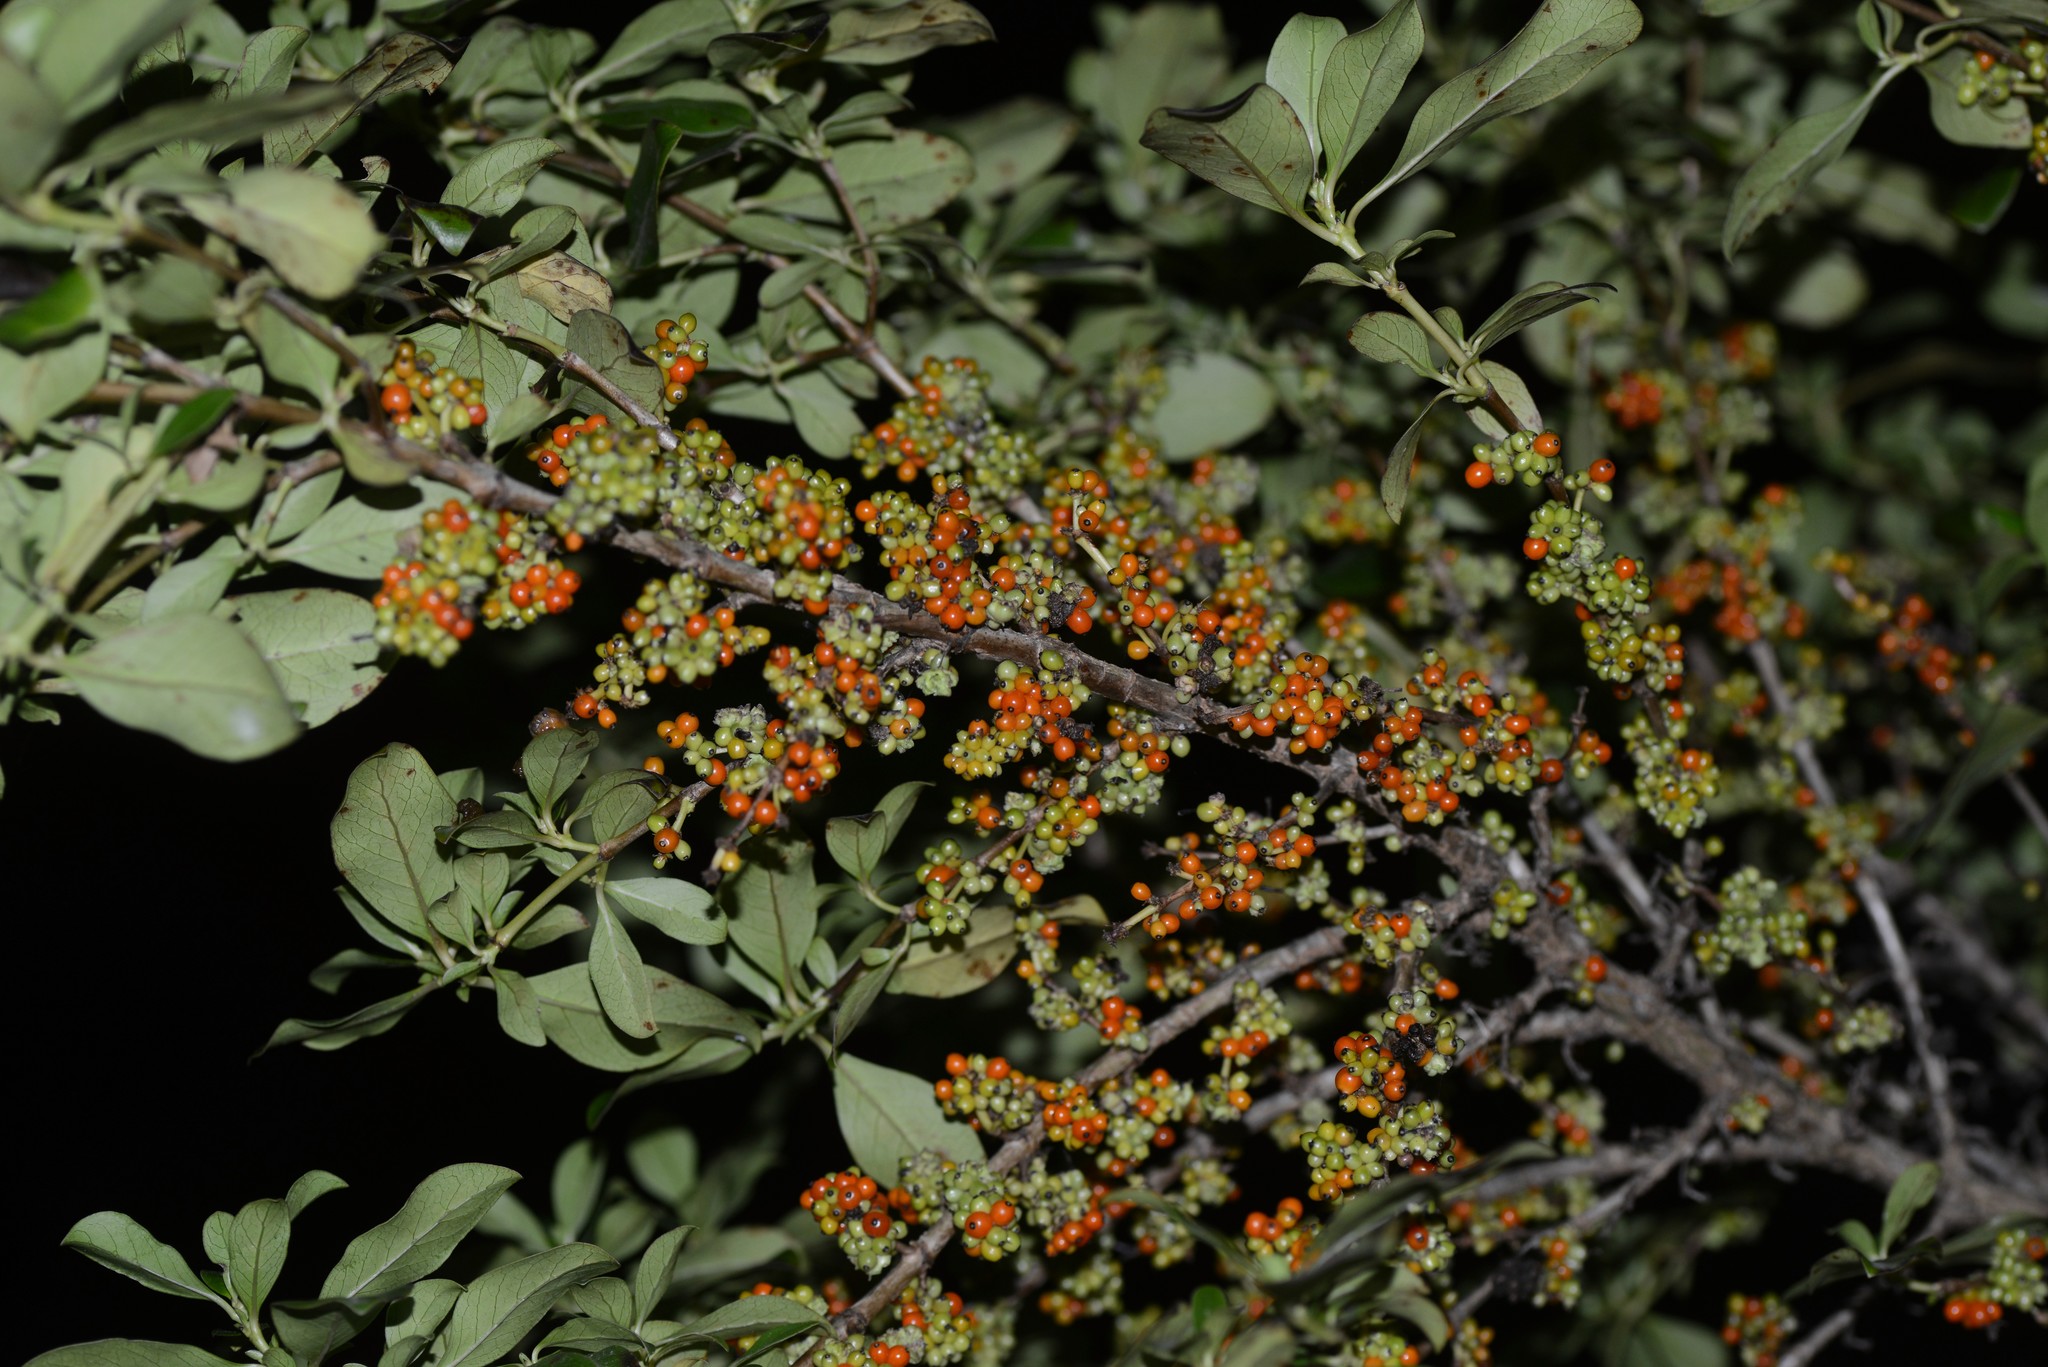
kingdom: Plantae
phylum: Tracheophyta
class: Magnoliopsida
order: Gentianales
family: Rubiaceae
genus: Coprosma
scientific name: Coprosma robusta
